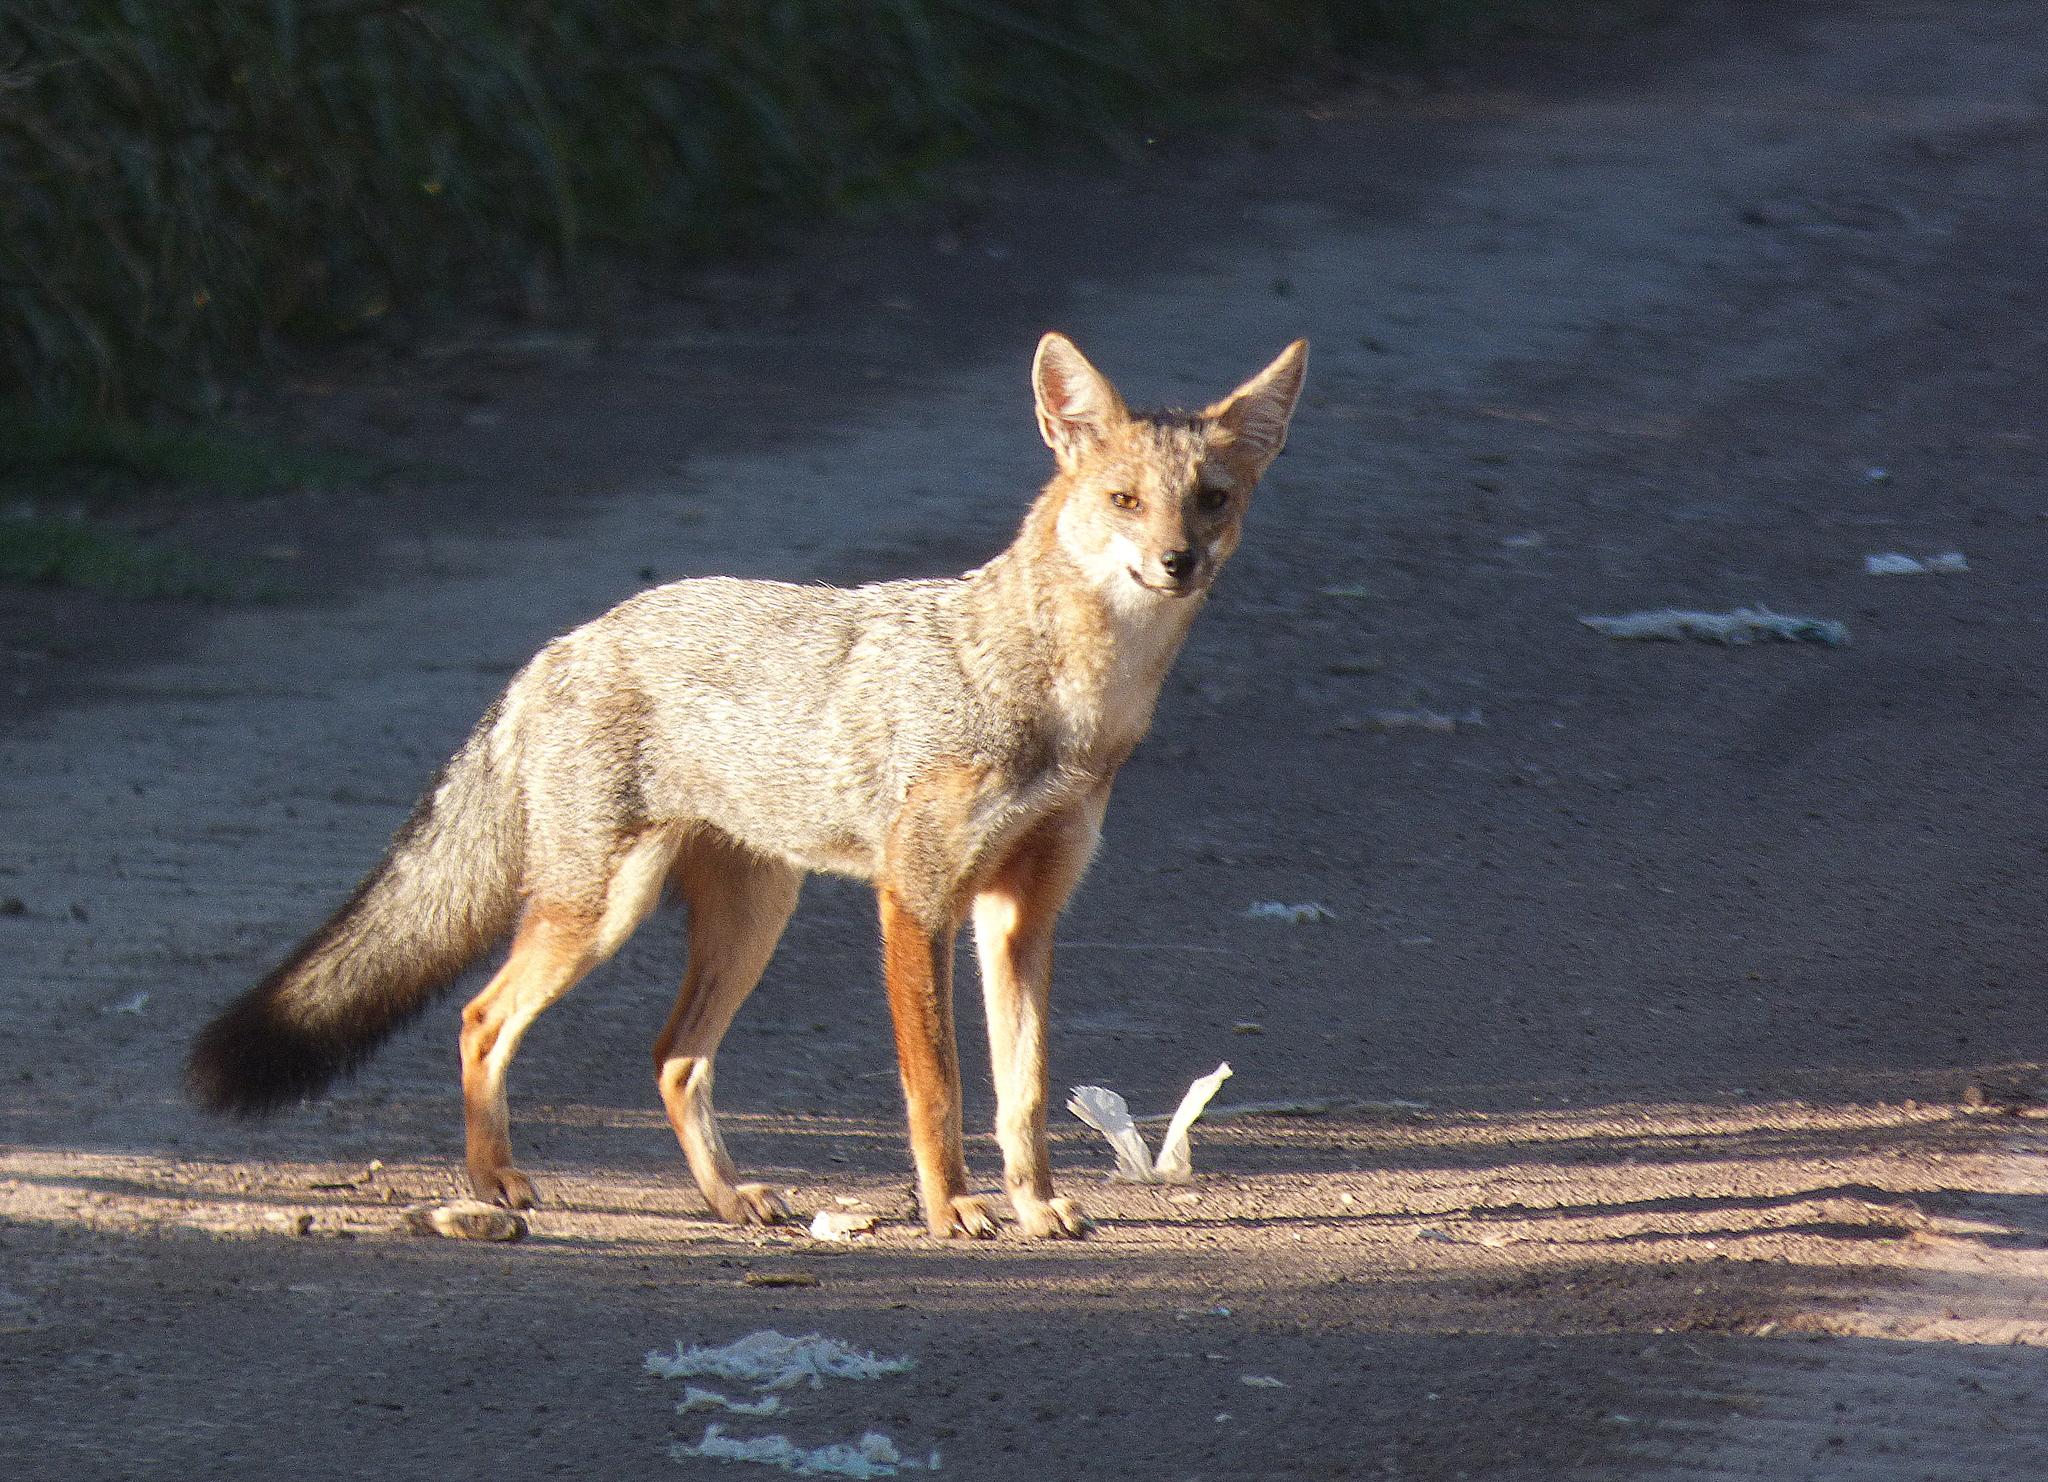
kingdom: Animalia
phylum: Chordata
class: Mammalia
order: Carnivora
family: Canidae
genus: Lycalopex
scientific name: Lycalopex gymnocercus
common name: Pampas fox
